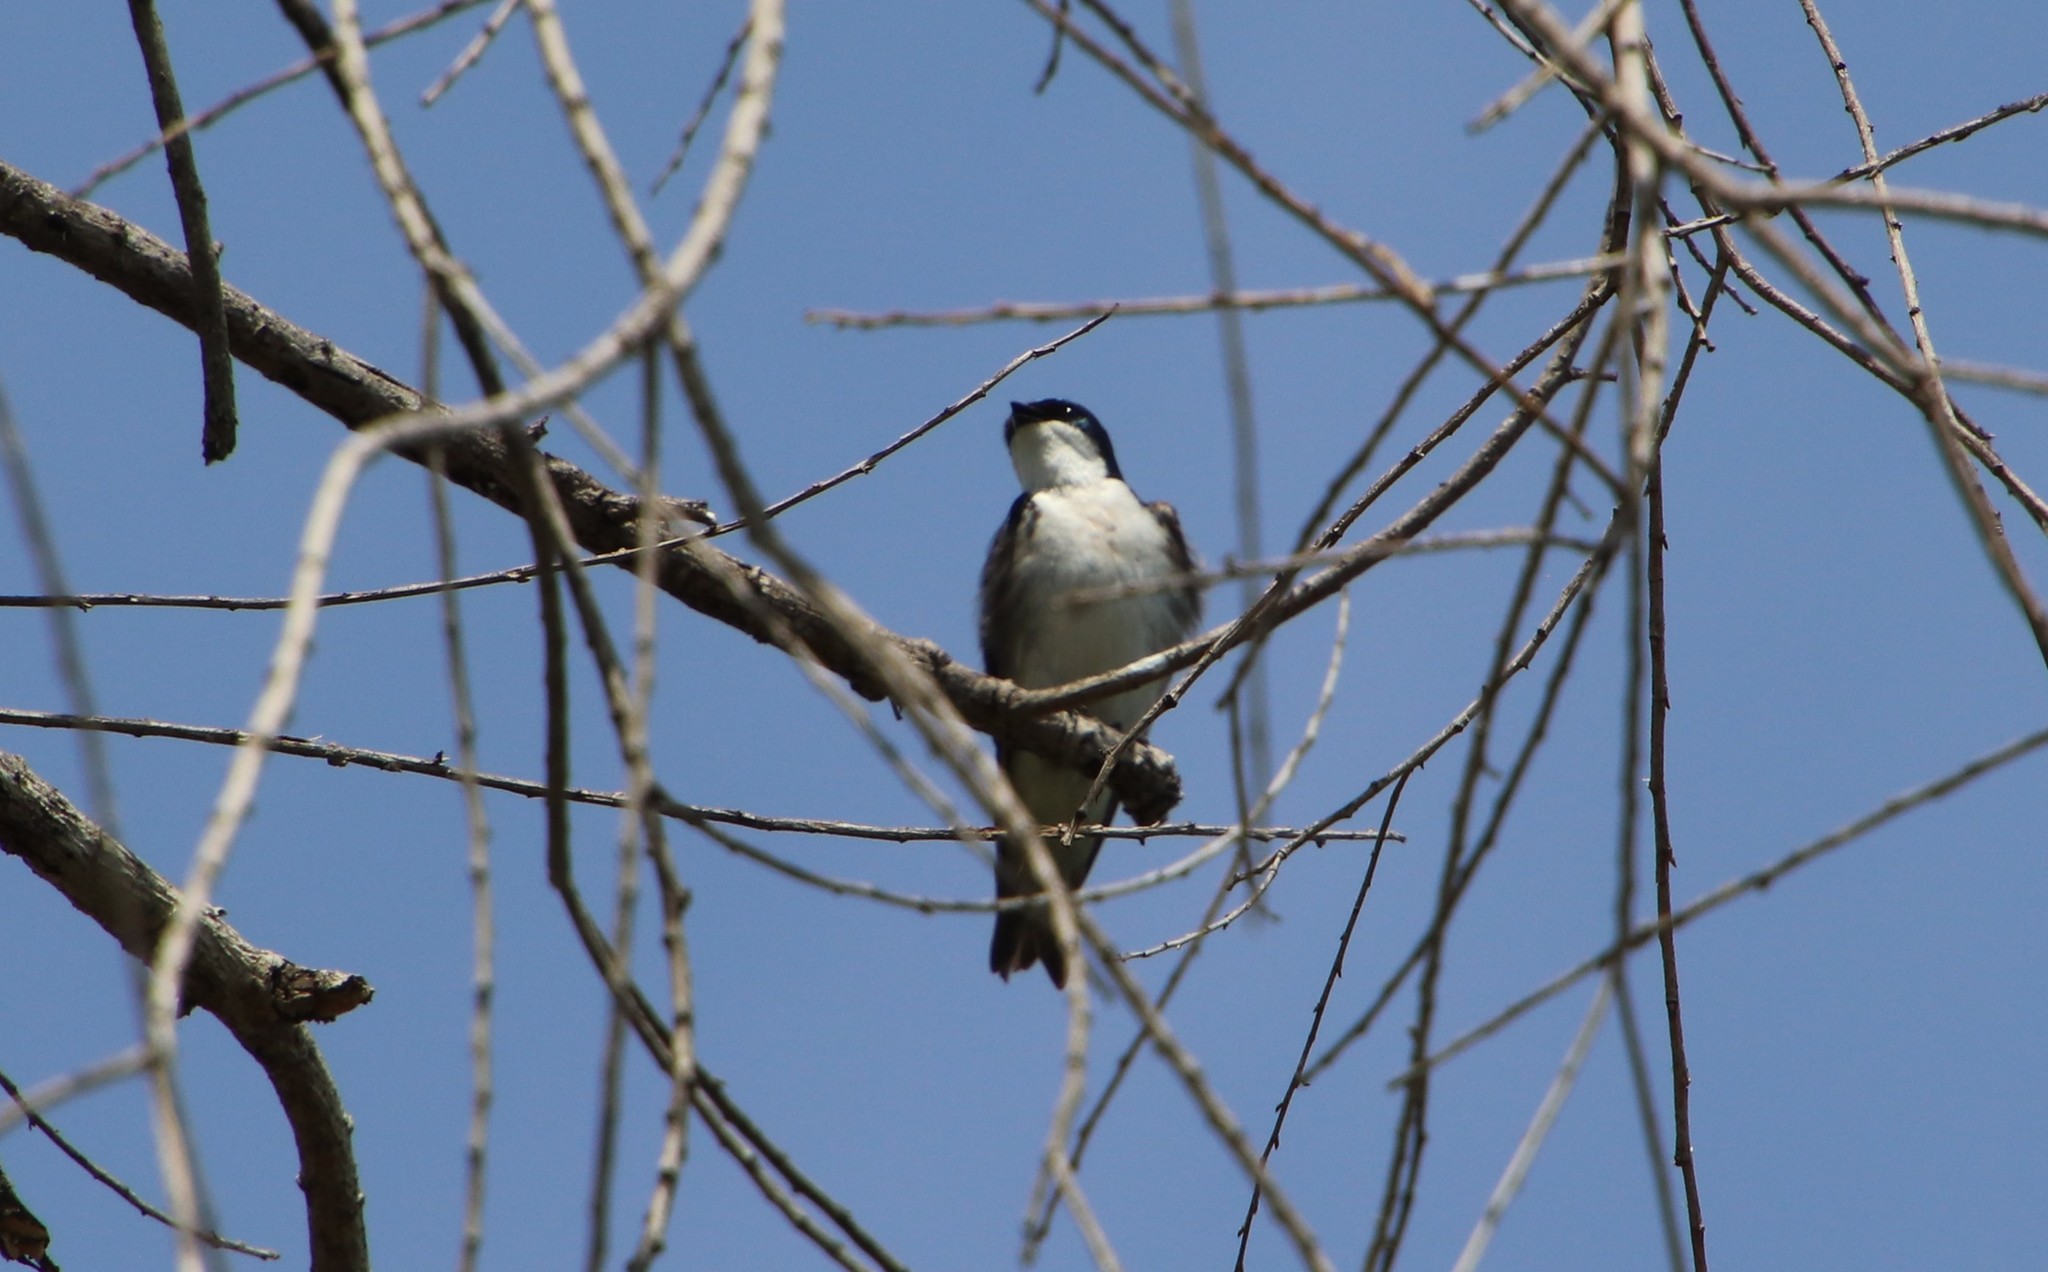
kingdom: Animalia
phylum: Chordata
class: Aves
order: Passeriformes
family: Hirundinidae
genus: Tachycineta
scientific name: Tachycineta bicolor
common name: Tree swallow
